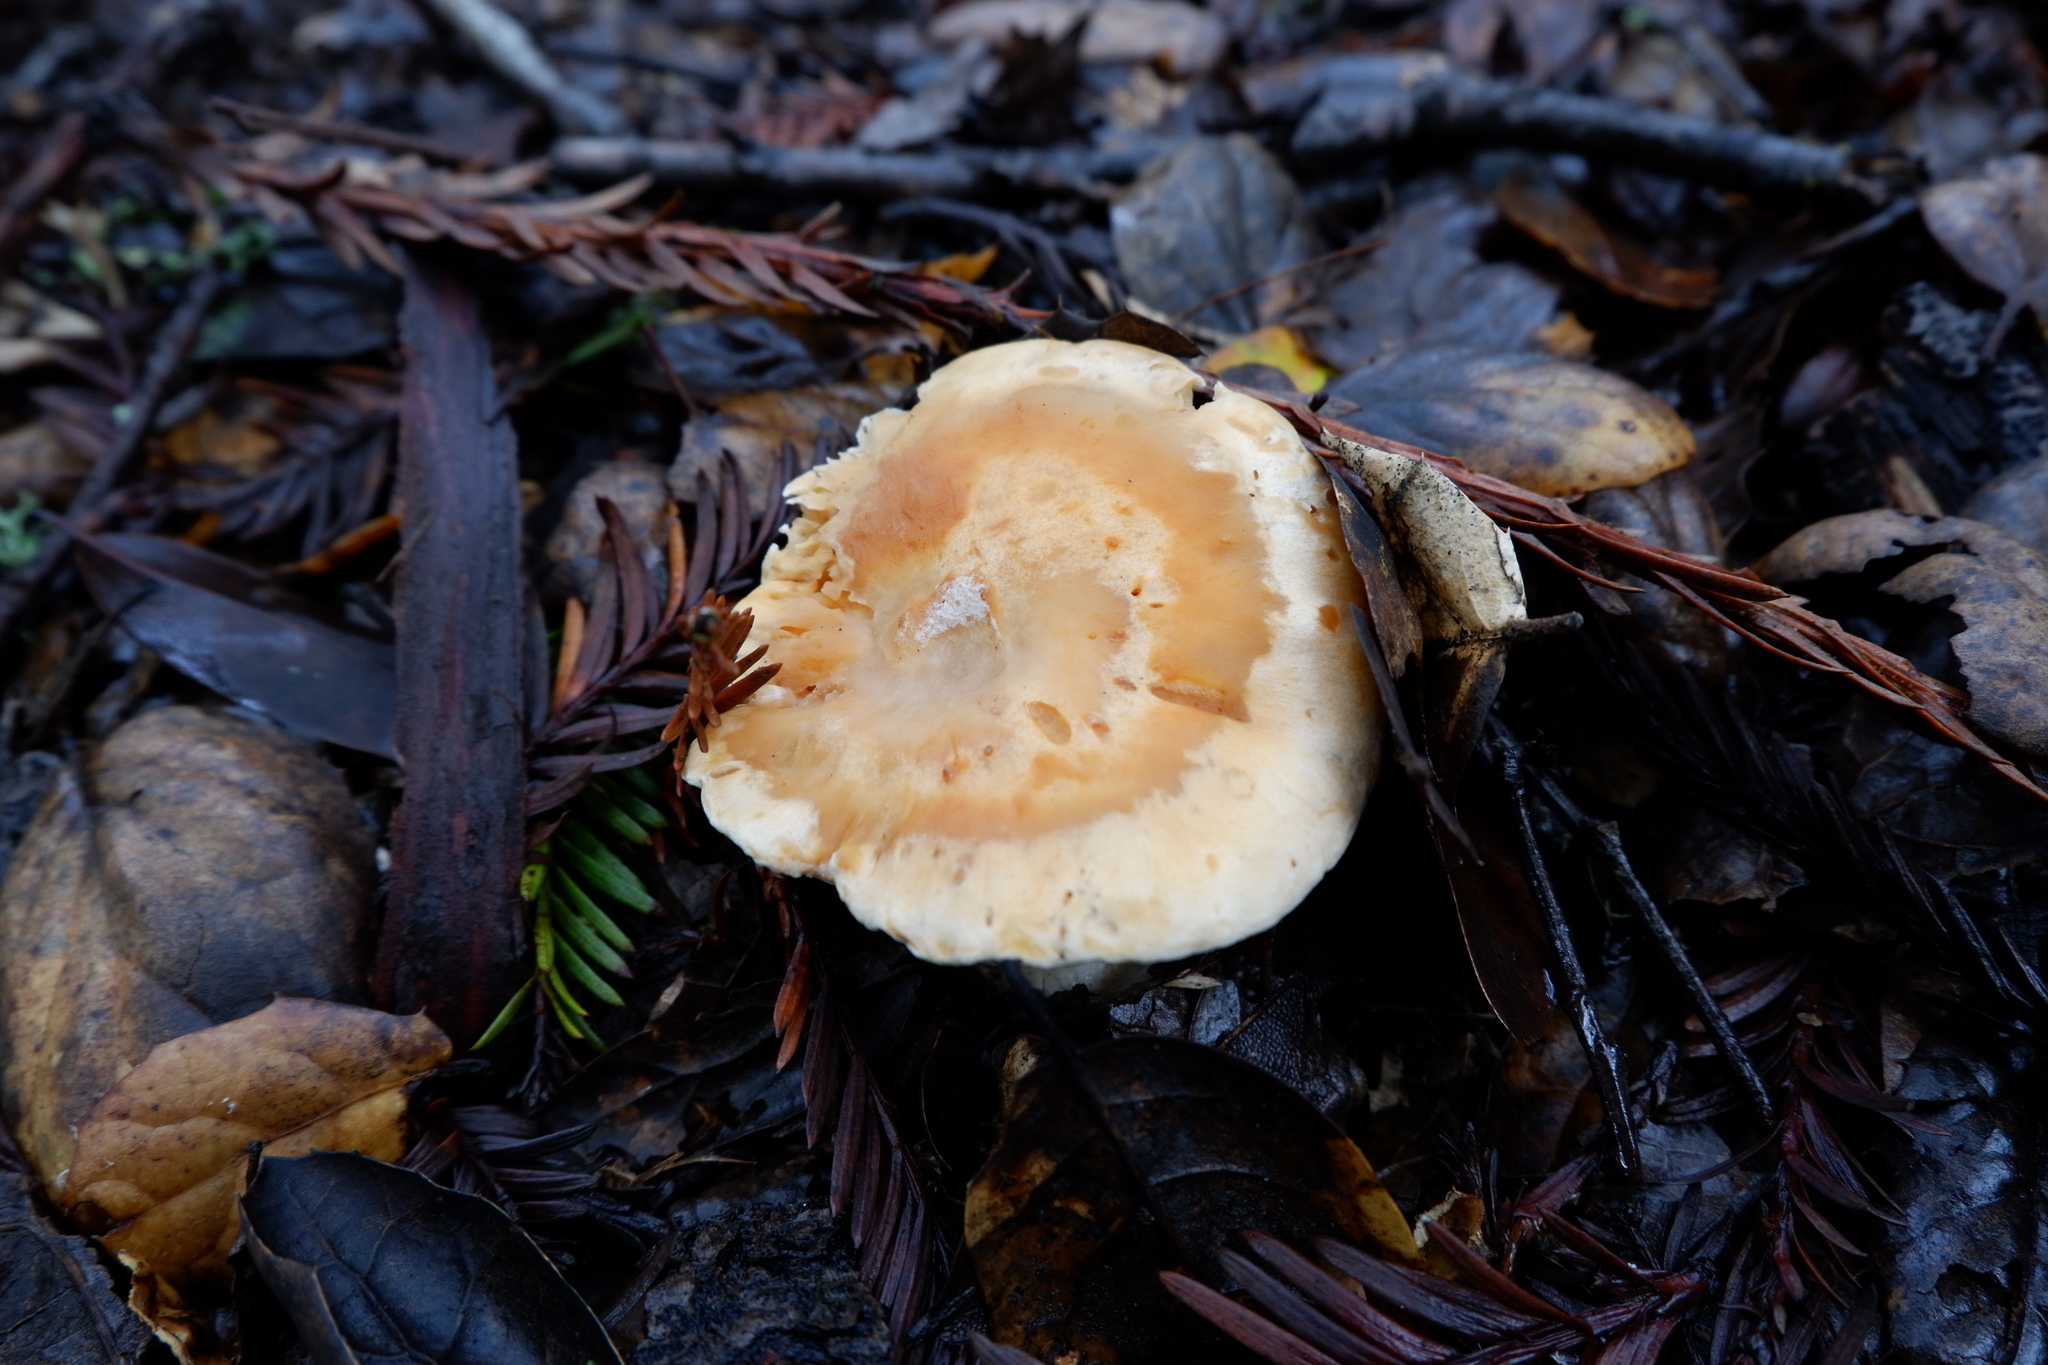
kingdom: Fungi
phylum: Basidiomycota
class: Agaricomycetes
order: Agaricales
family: Hygrophoraceae
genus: Cuphophyllus
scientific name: Cuphophyllus pratensis
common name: Meadow waxcap
